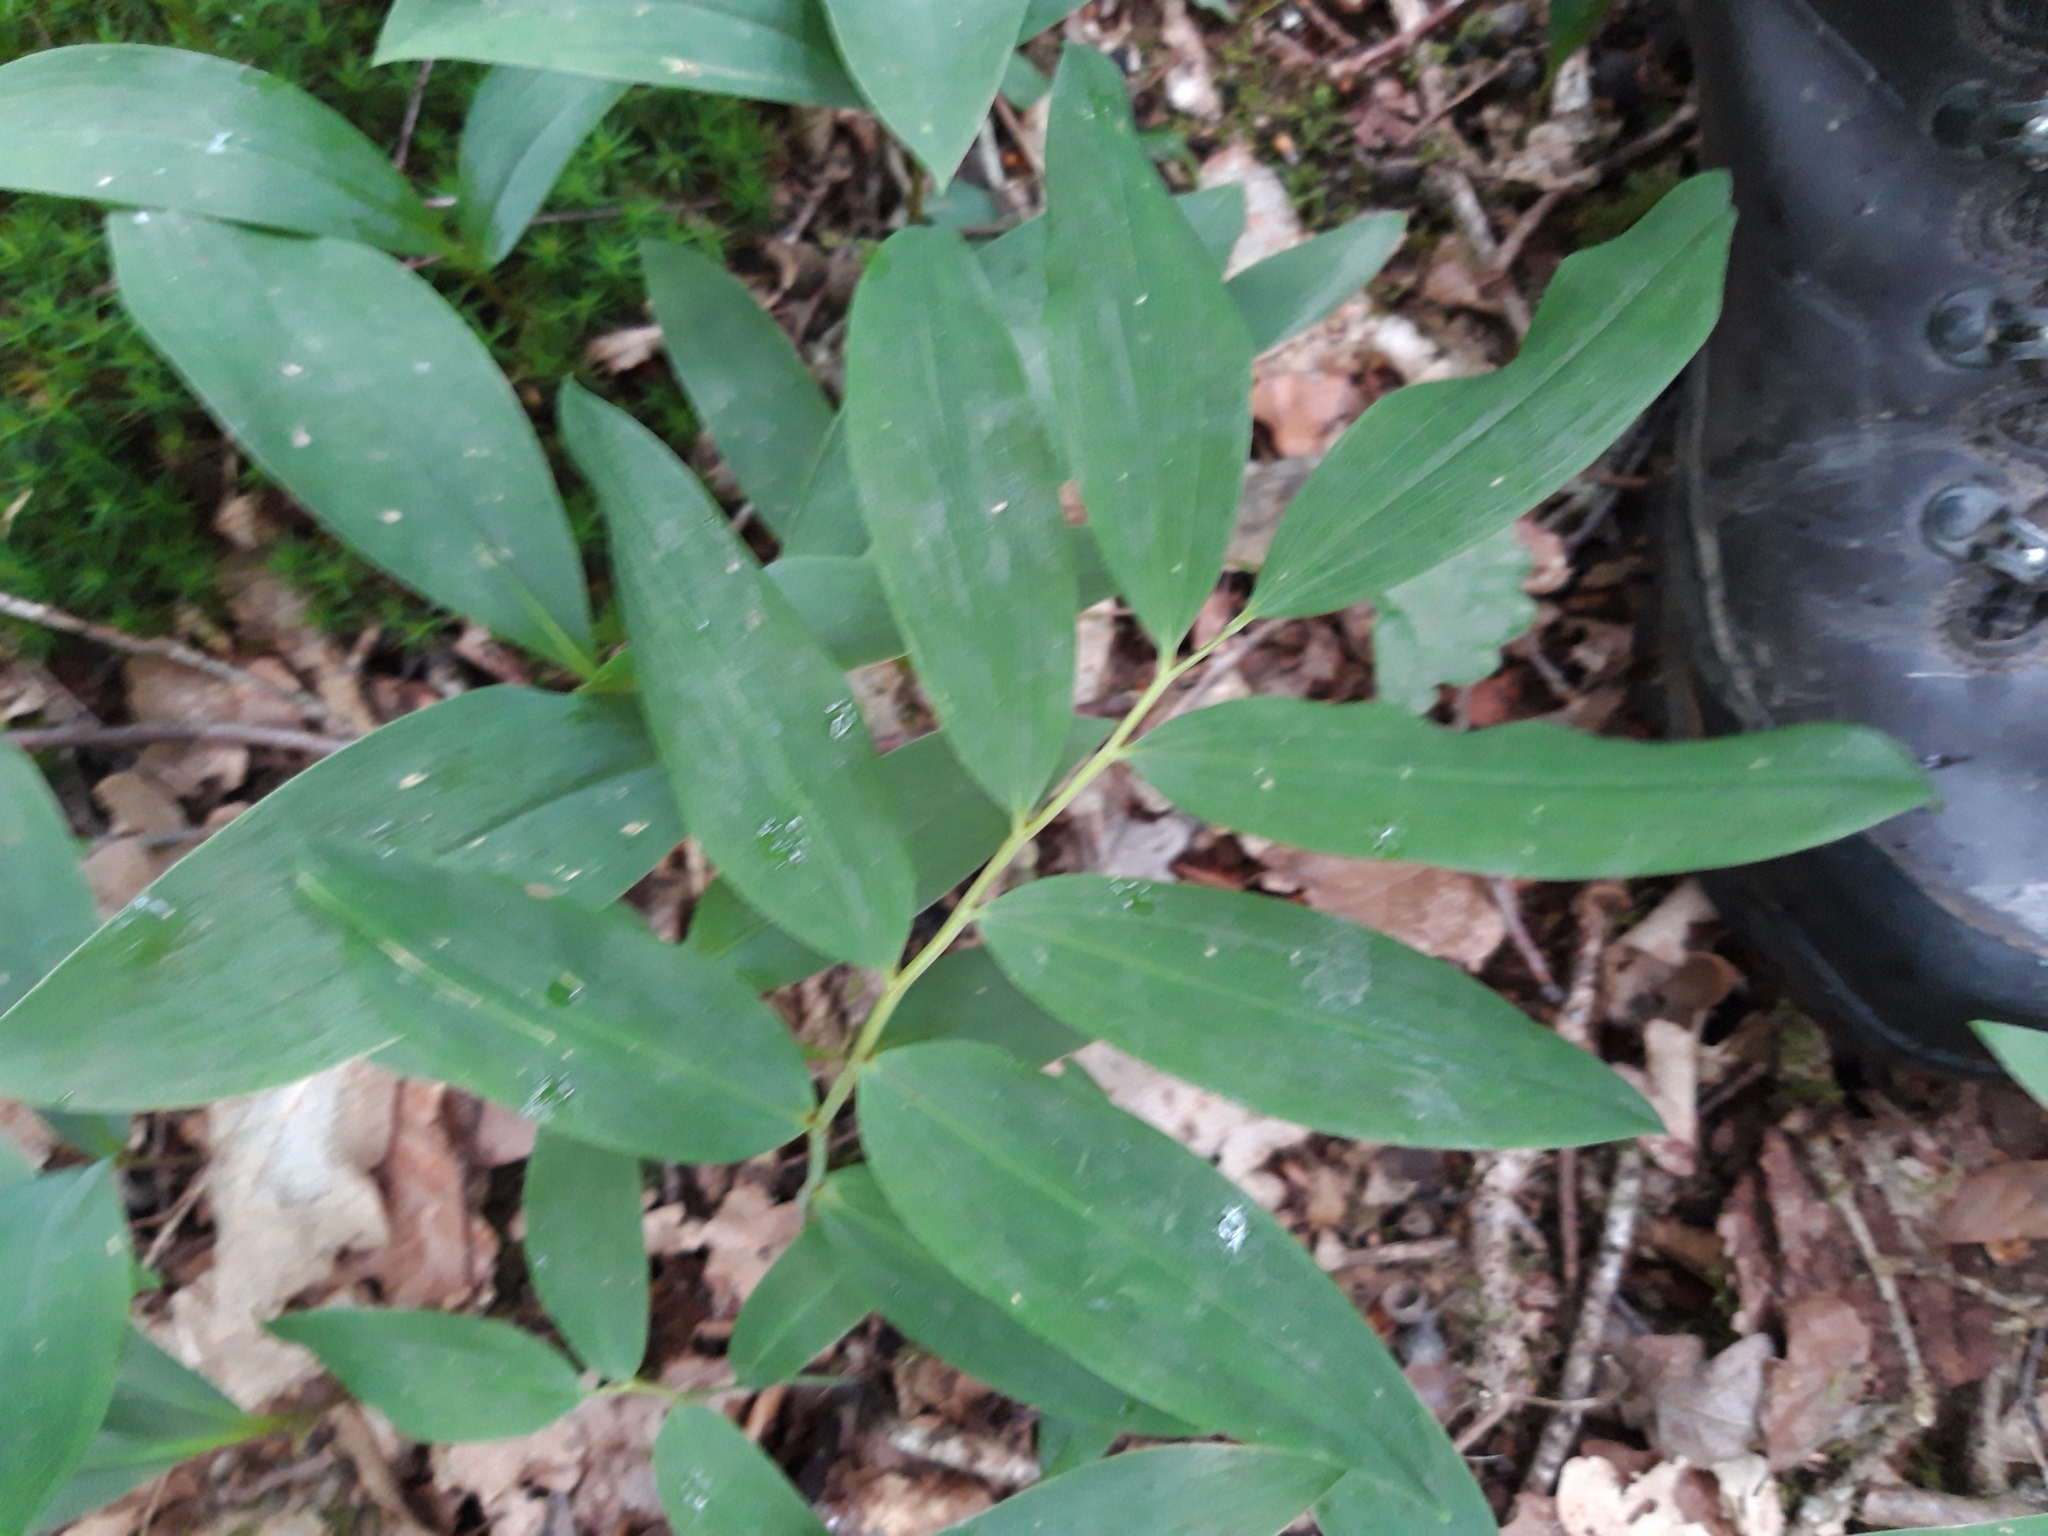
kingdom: Plantae
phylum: Tracheophyta
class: Liliopsida
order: Asparagales
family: Asparagaceae
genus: Polygonatum
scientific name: Polygonatum multiflorum
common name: Solomon's-seal
